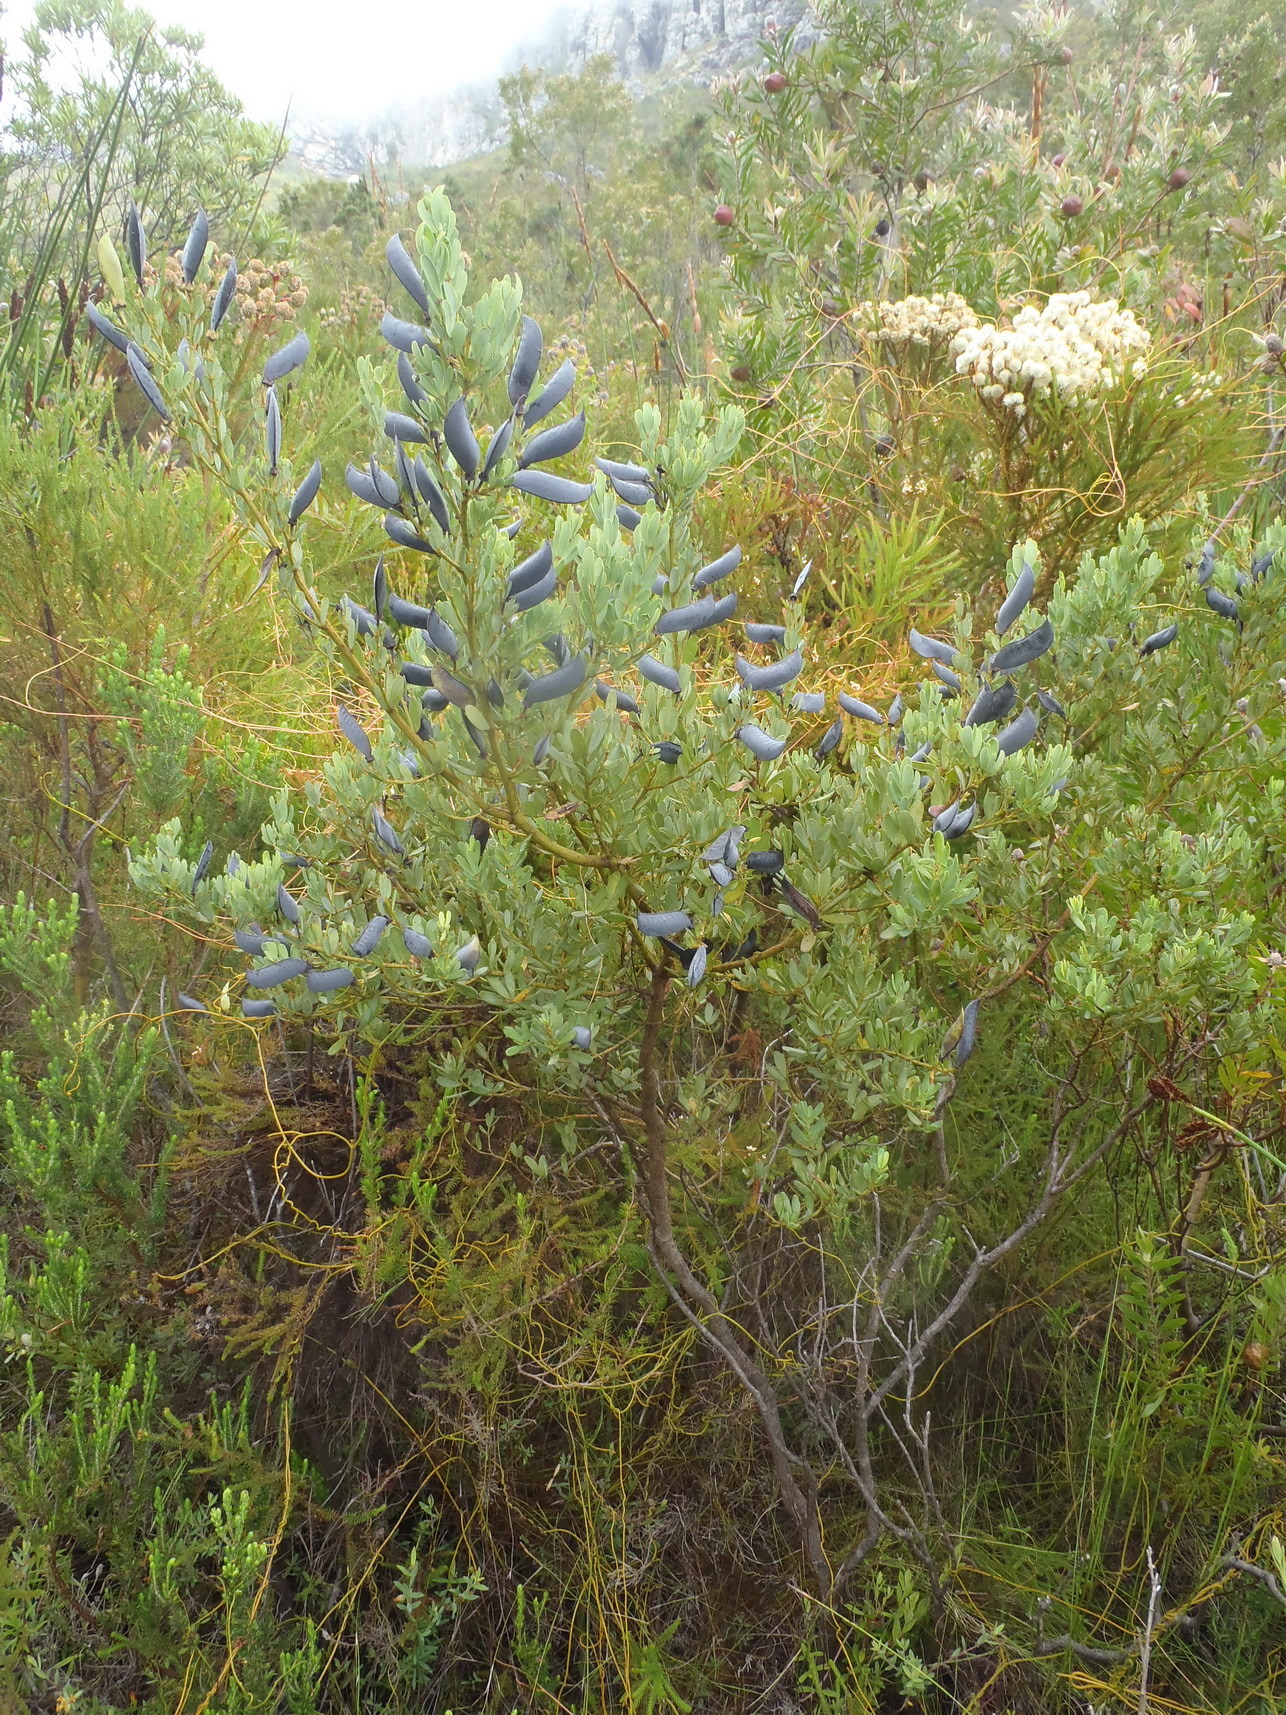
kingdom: Plantae
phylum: Tracheophyta
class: Magnoliopsida
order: Fabales
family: Fabaceae
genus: Cyclopia
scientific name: Cyclopia subternata
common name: Honeybush tea
